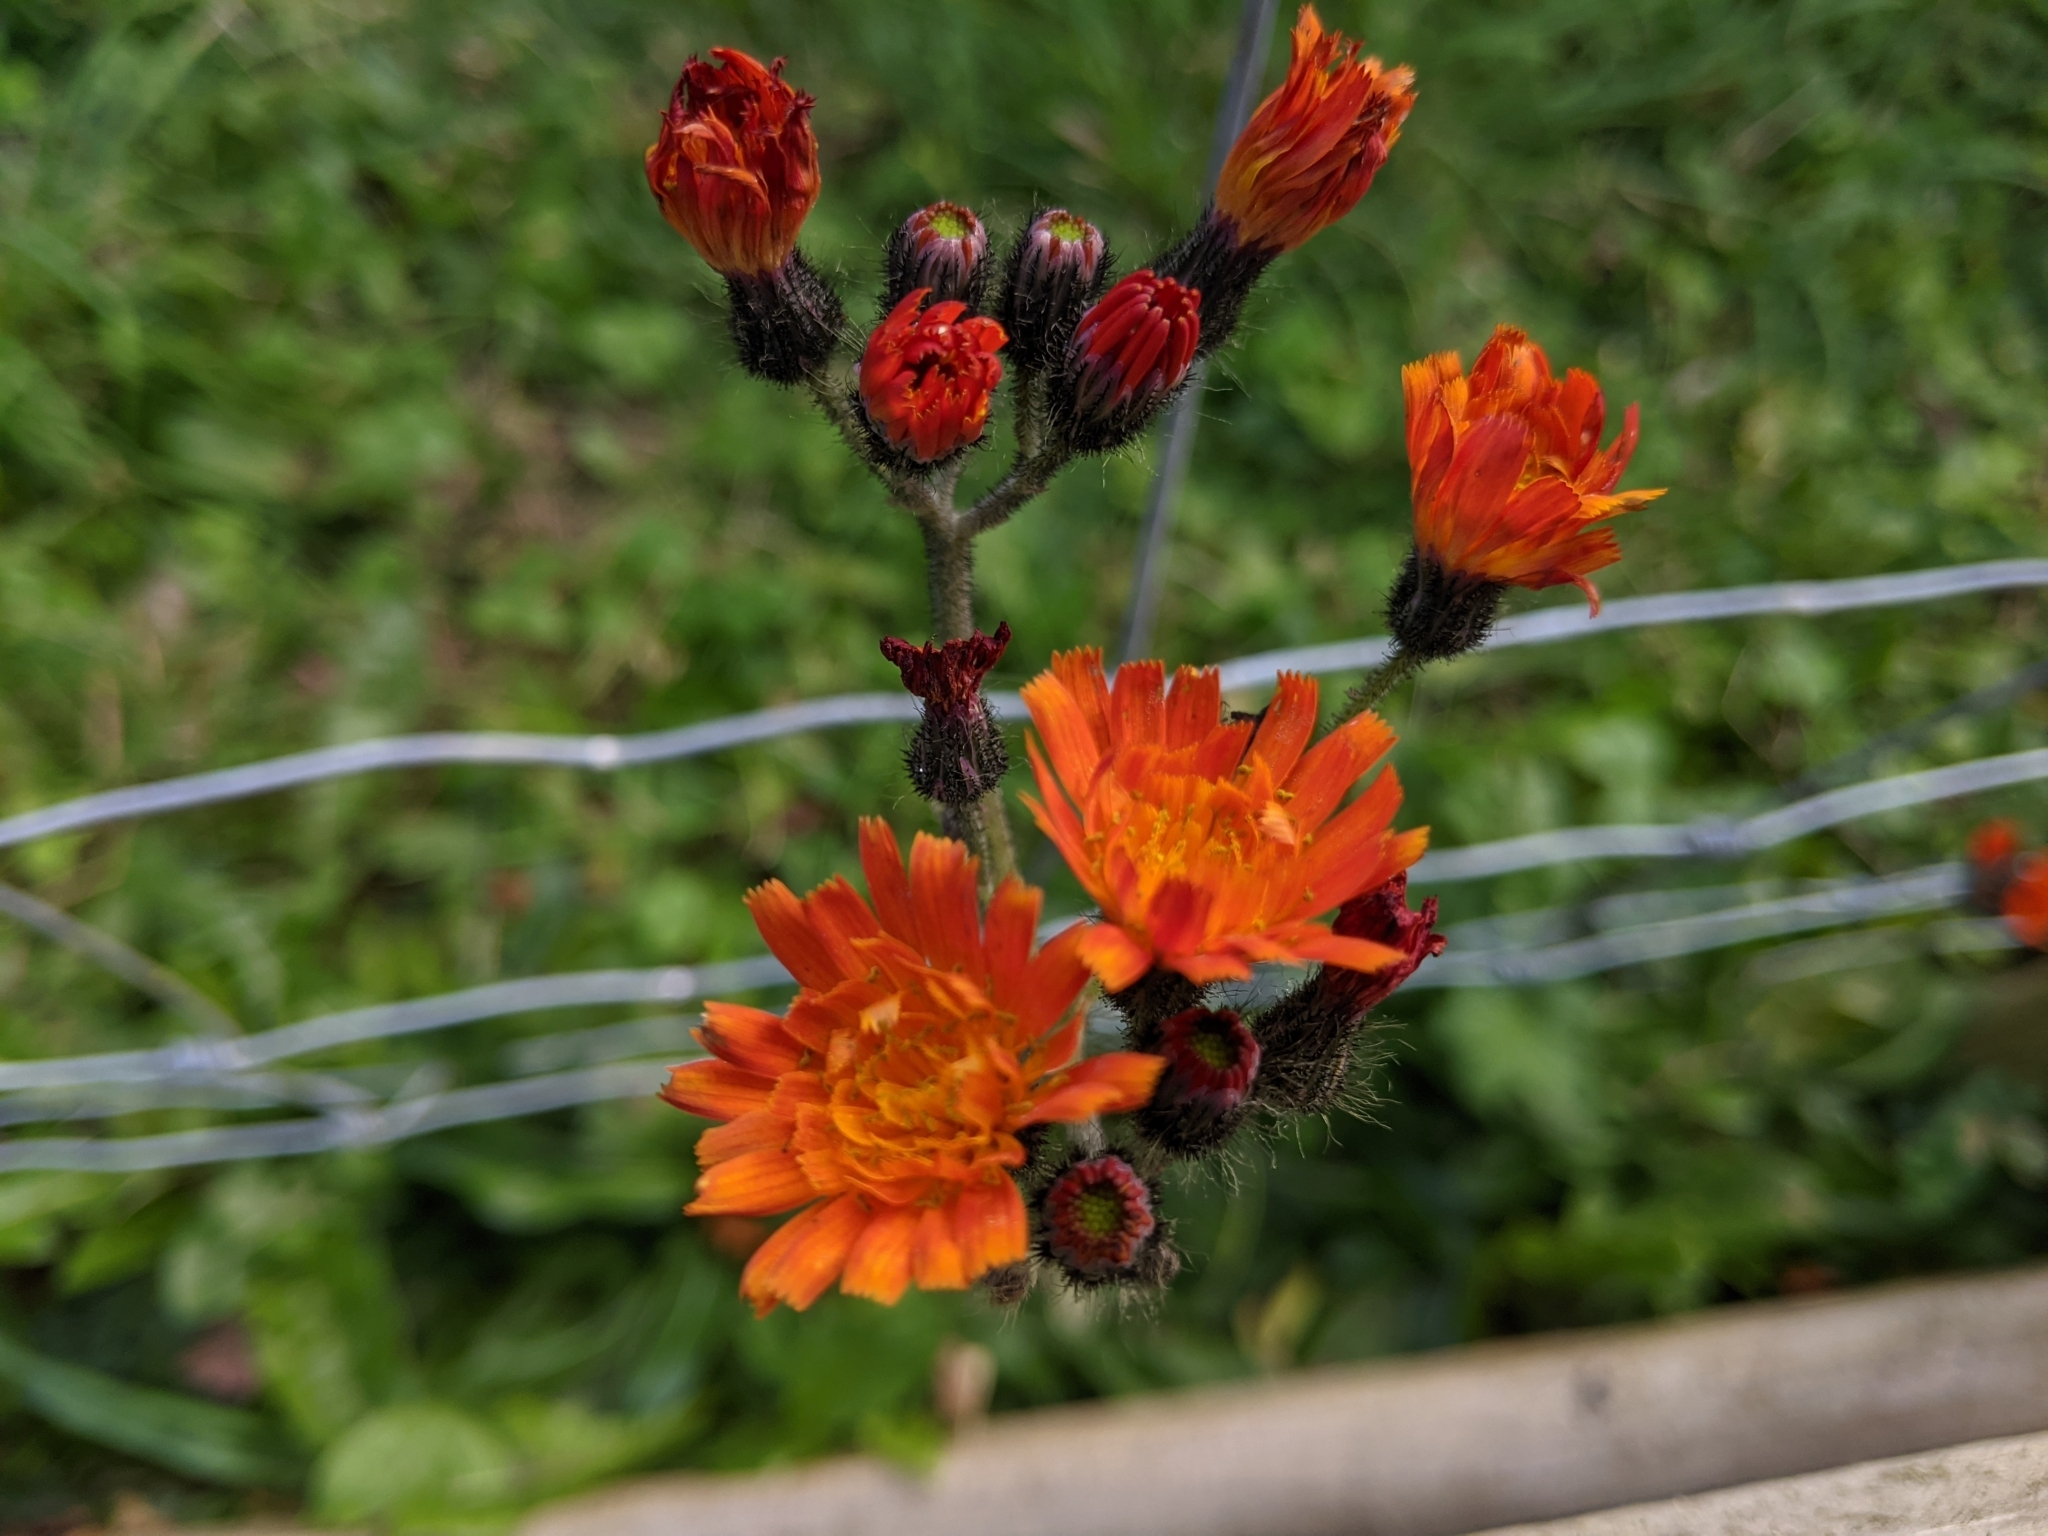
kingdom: Plantae
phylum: Tracheophyta
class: Magnoliopsida
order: Asterales
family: Asteraceae
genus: Pilosella
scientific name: Pilosella aurantiaca
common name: Fox-and-cubs
